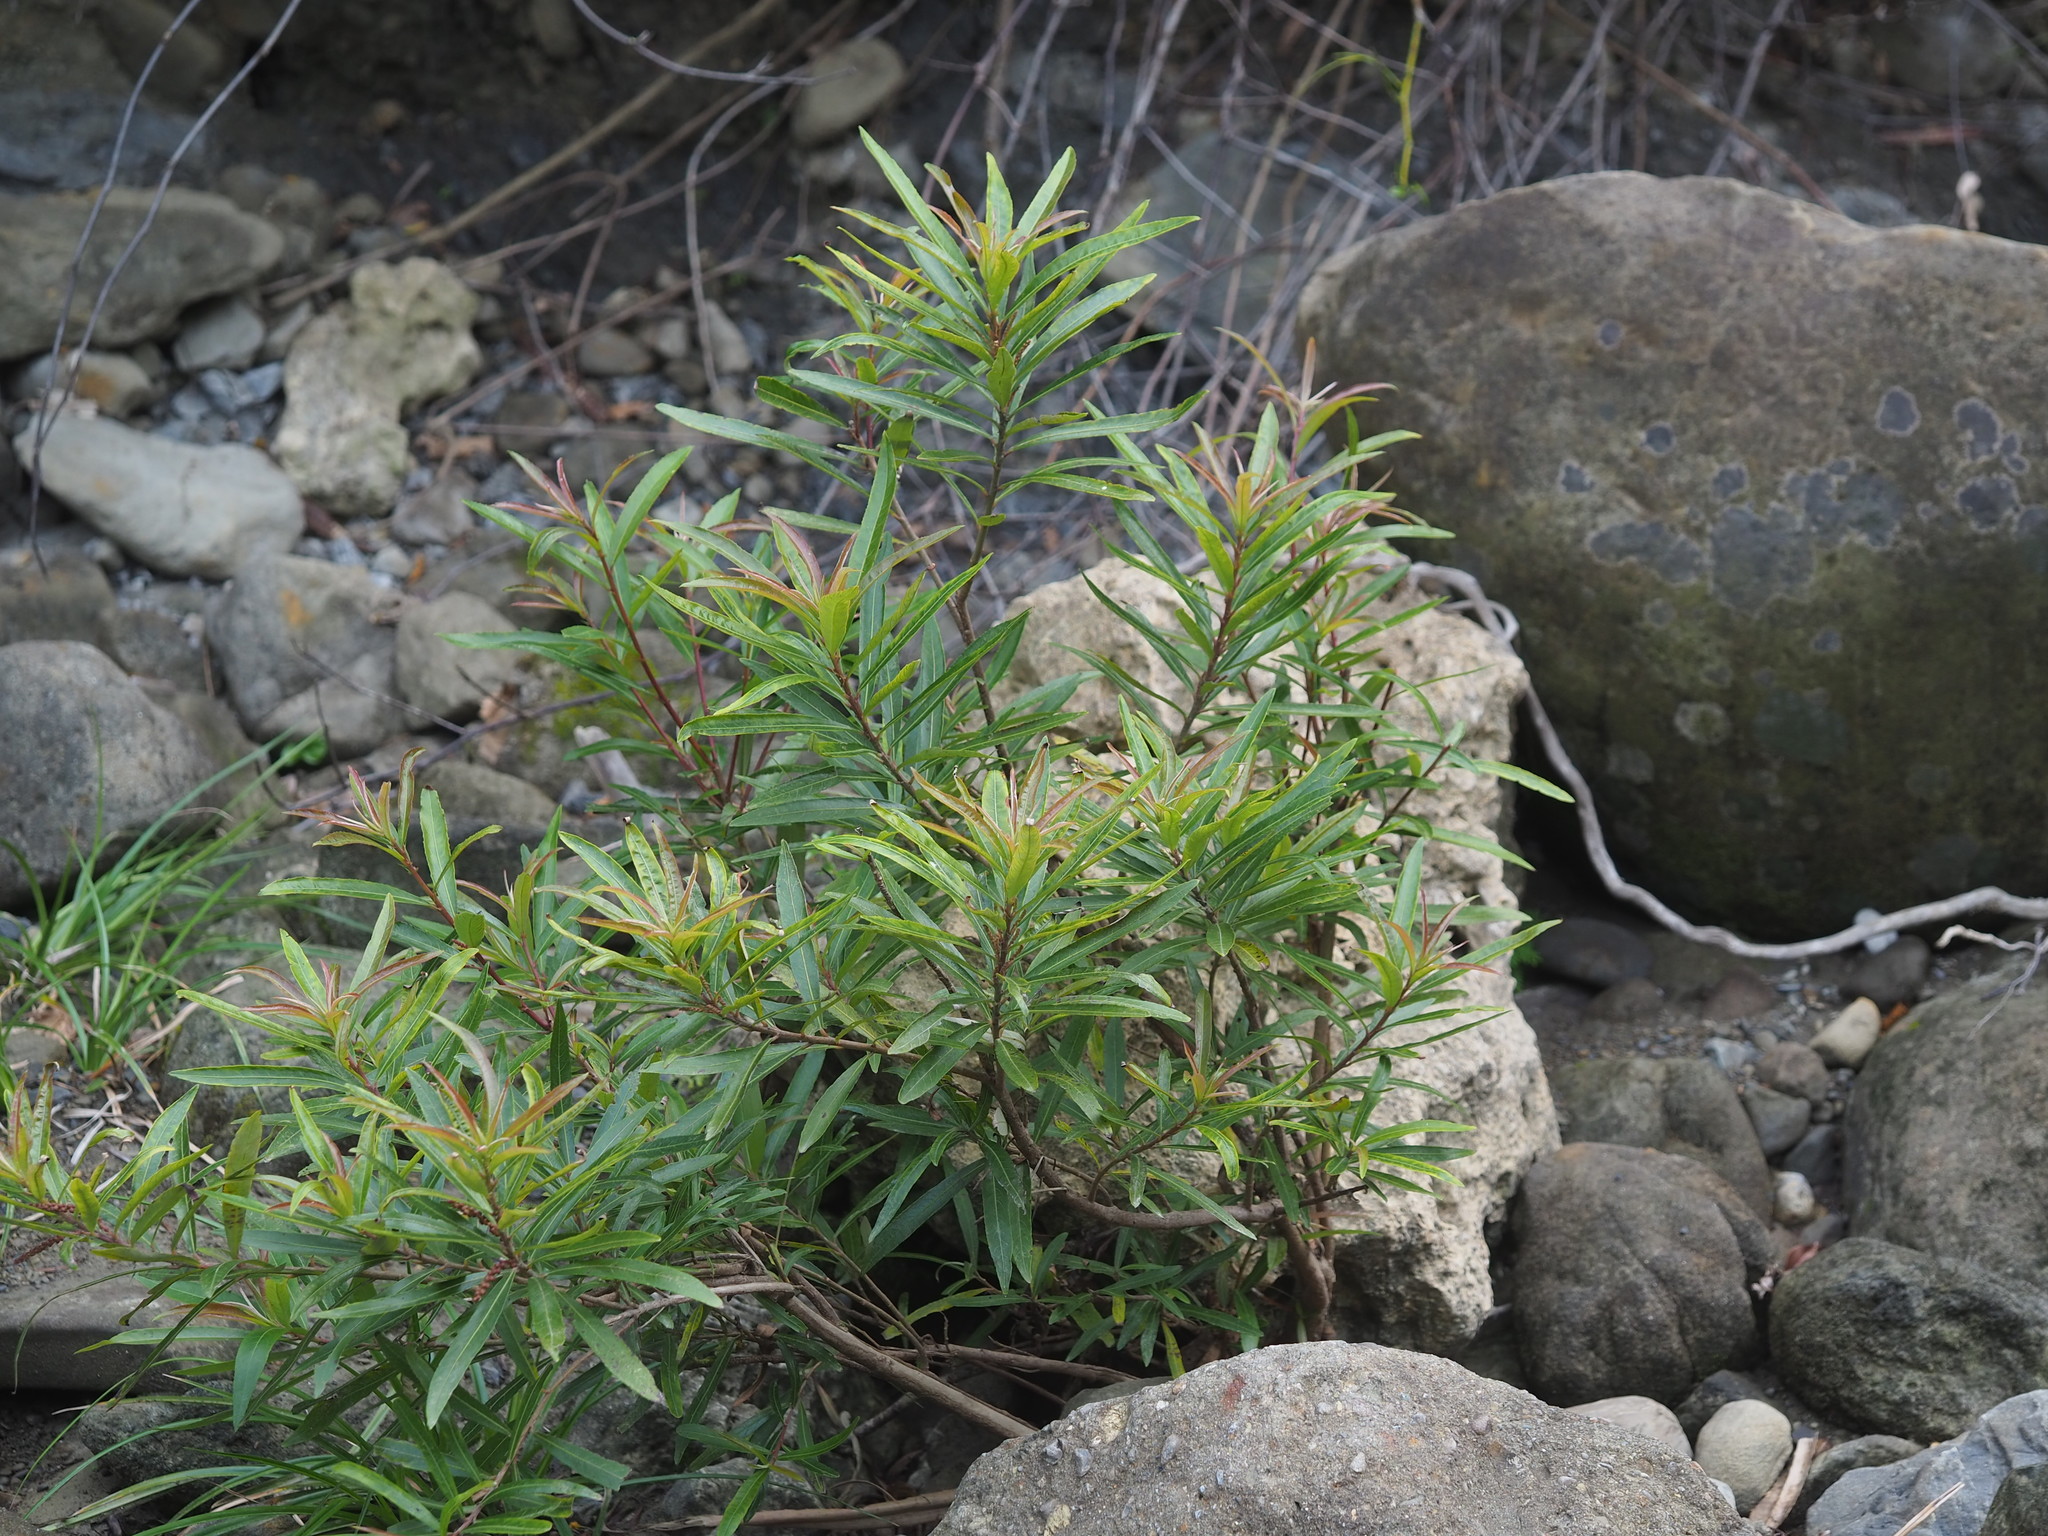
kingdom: Plantae
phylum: Tracheophyta
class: Magnoliopsida
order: Malpighiales
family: Euphorbiaceae
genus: Homonoia
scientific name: Homonoia riparia
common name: Willow-leaved water croton
